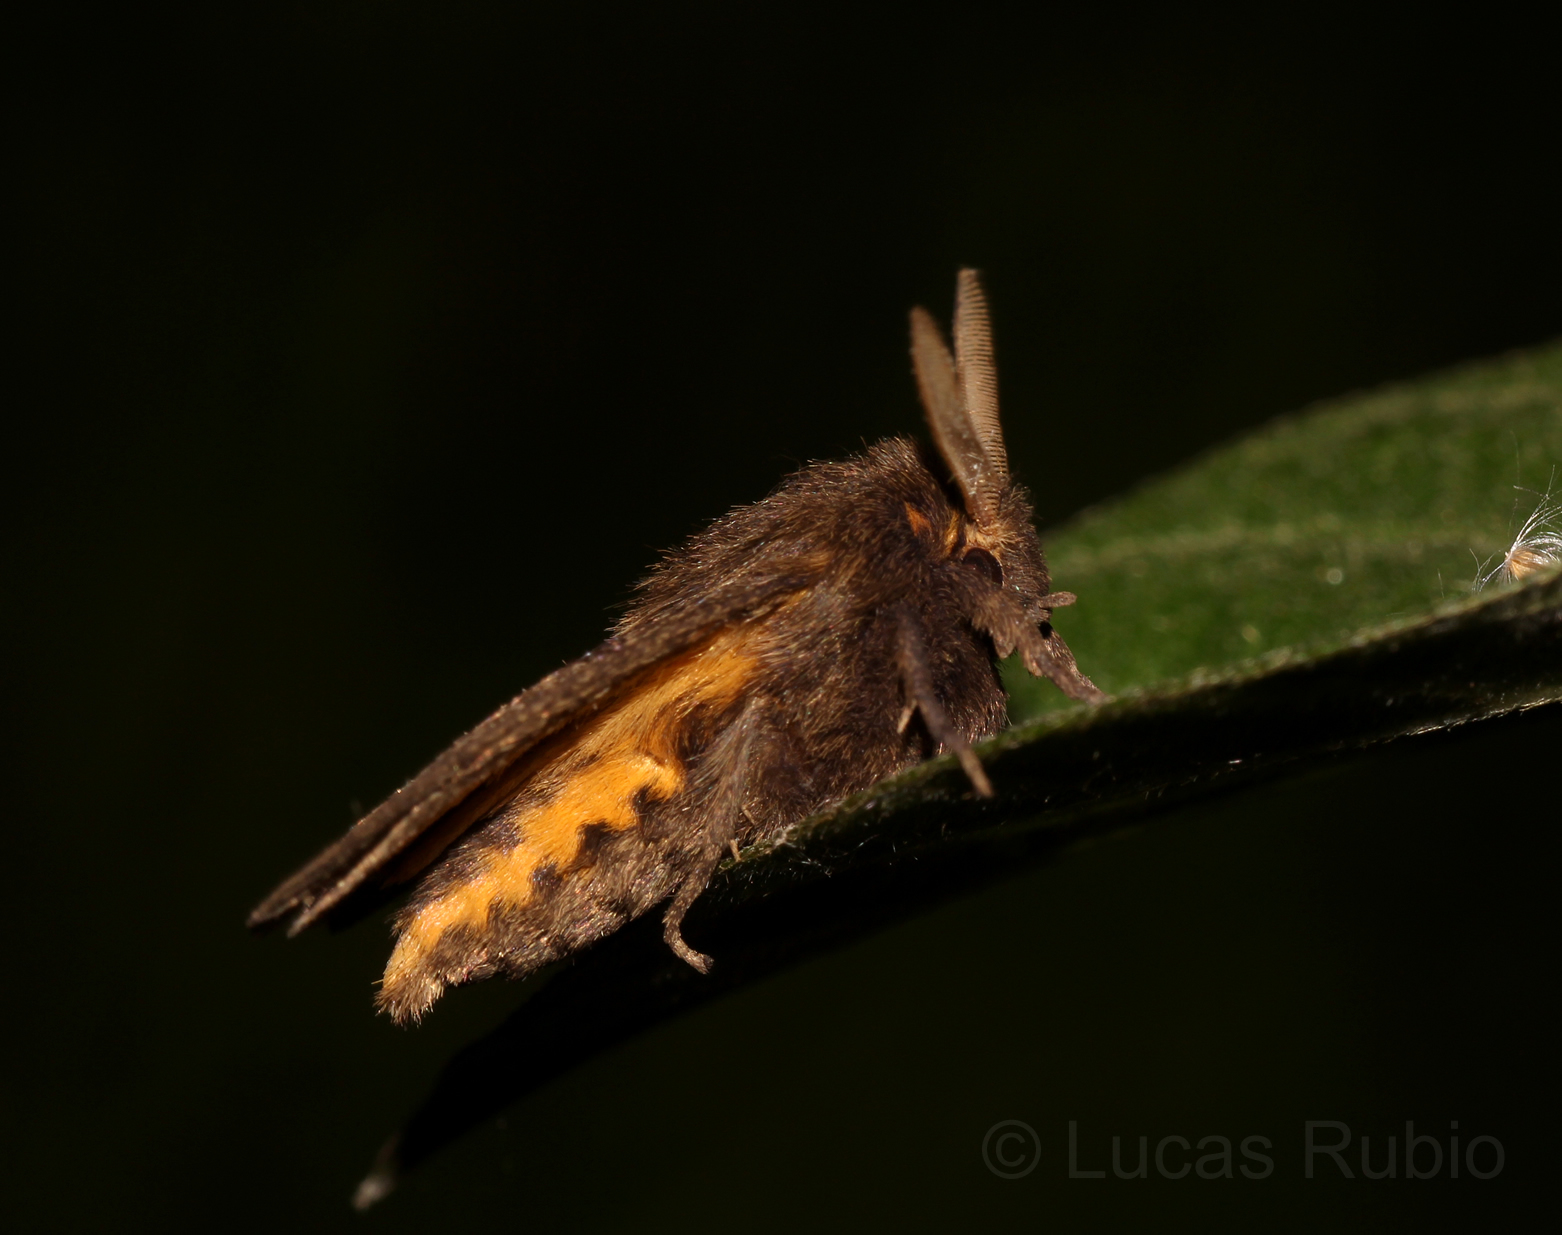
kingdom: Animalia
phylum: Arthropoda
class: Insecta
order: Lepidoptera
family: Erebidae
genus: Paracles
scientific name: Paracles fusca
